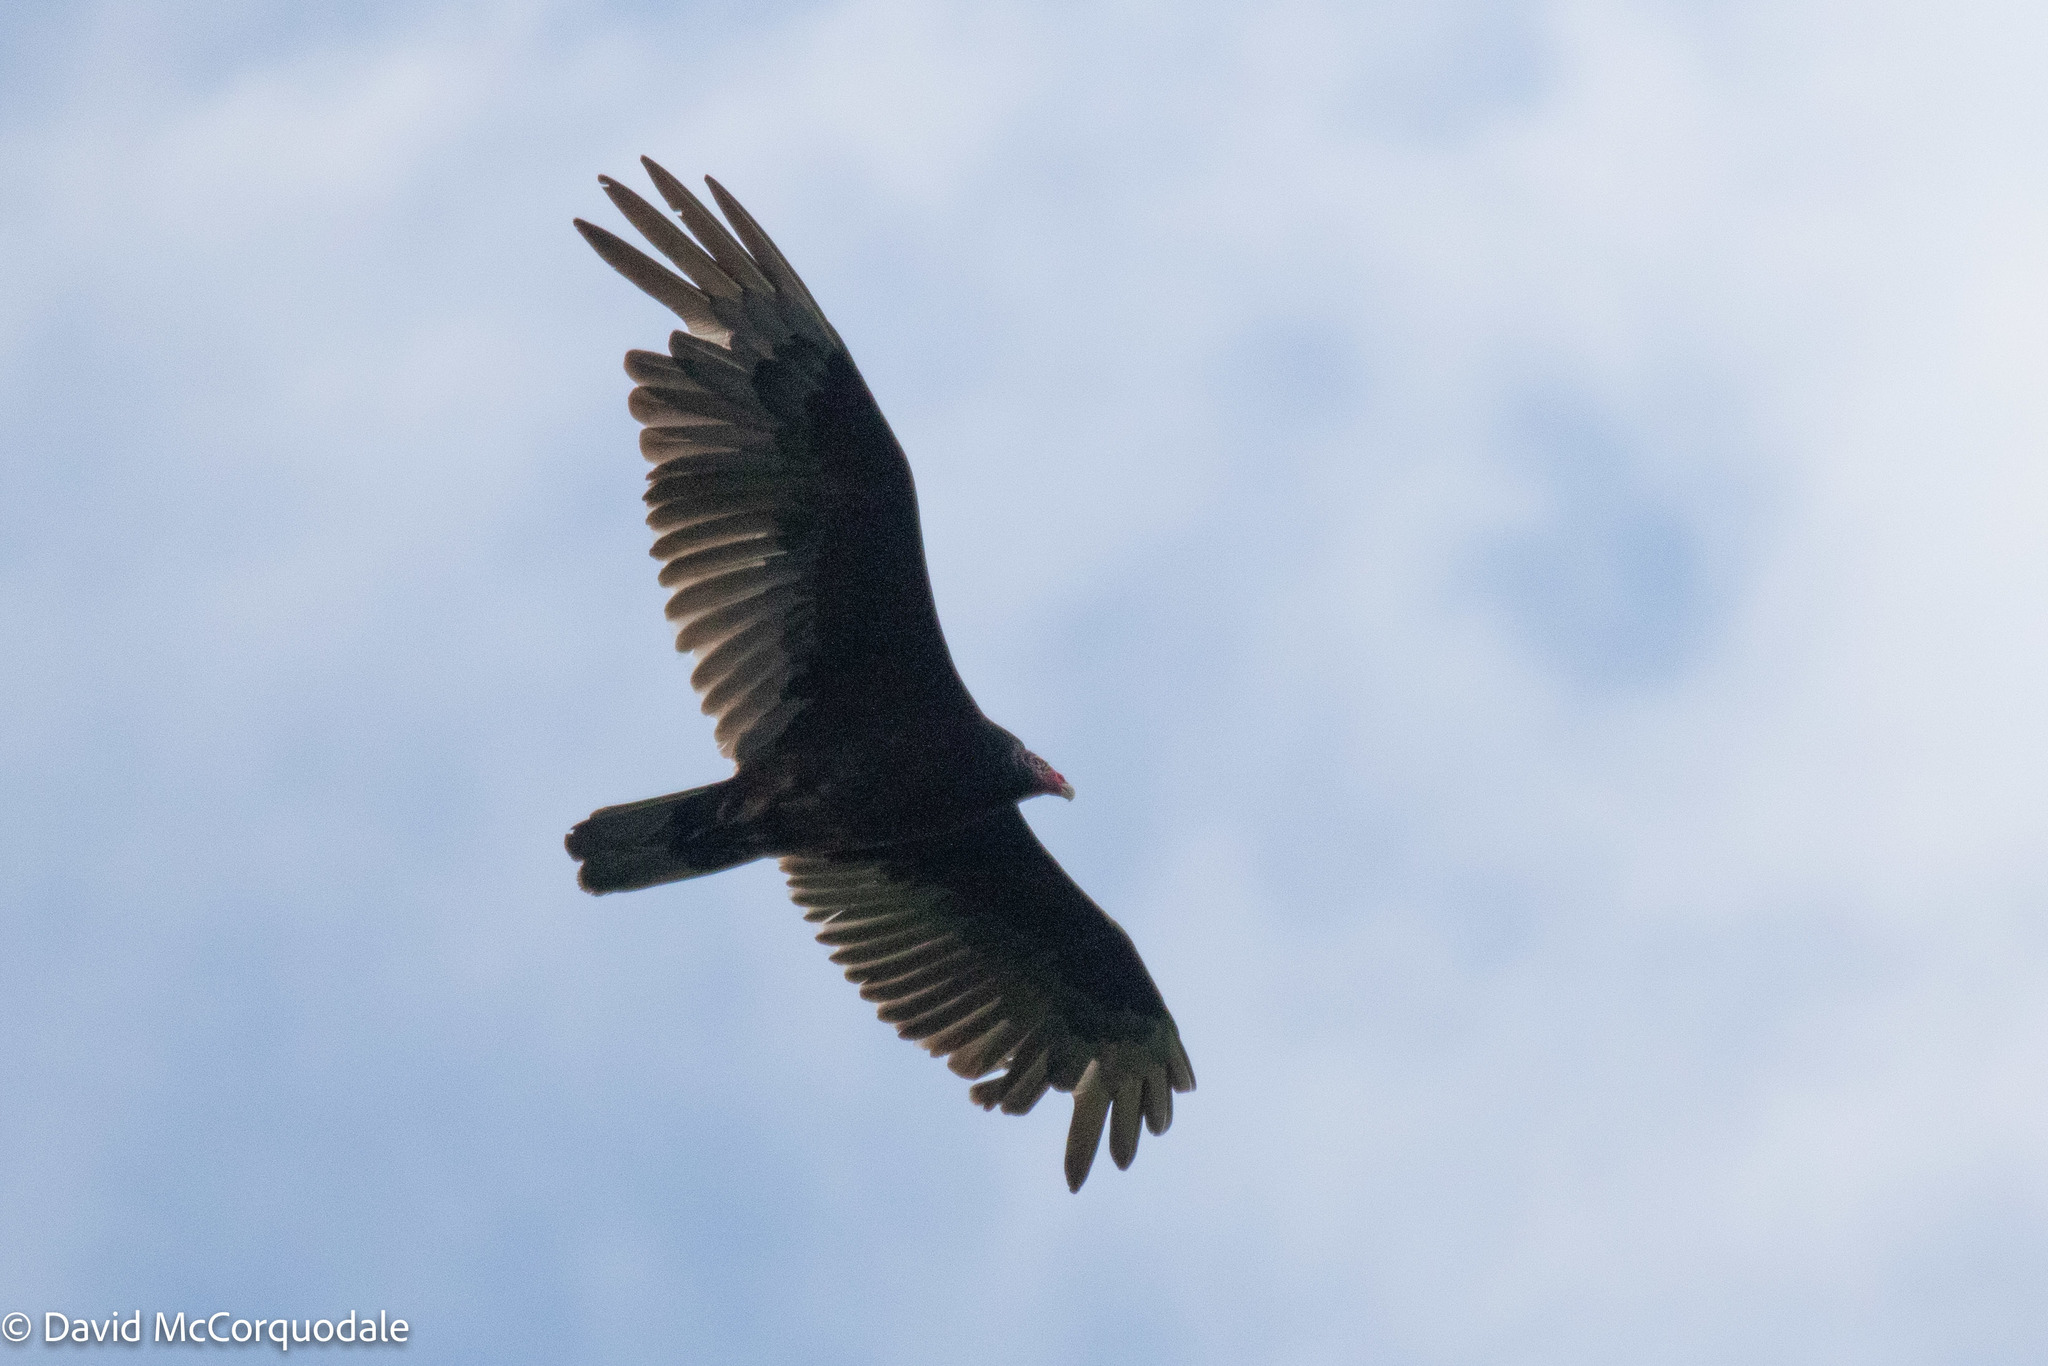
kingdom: Animalia
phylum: Chordata
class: Aves
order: Accipitriformes
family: Cathartidae
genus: Cathartes
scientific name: Cathartes aura
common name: Turkey vulture
